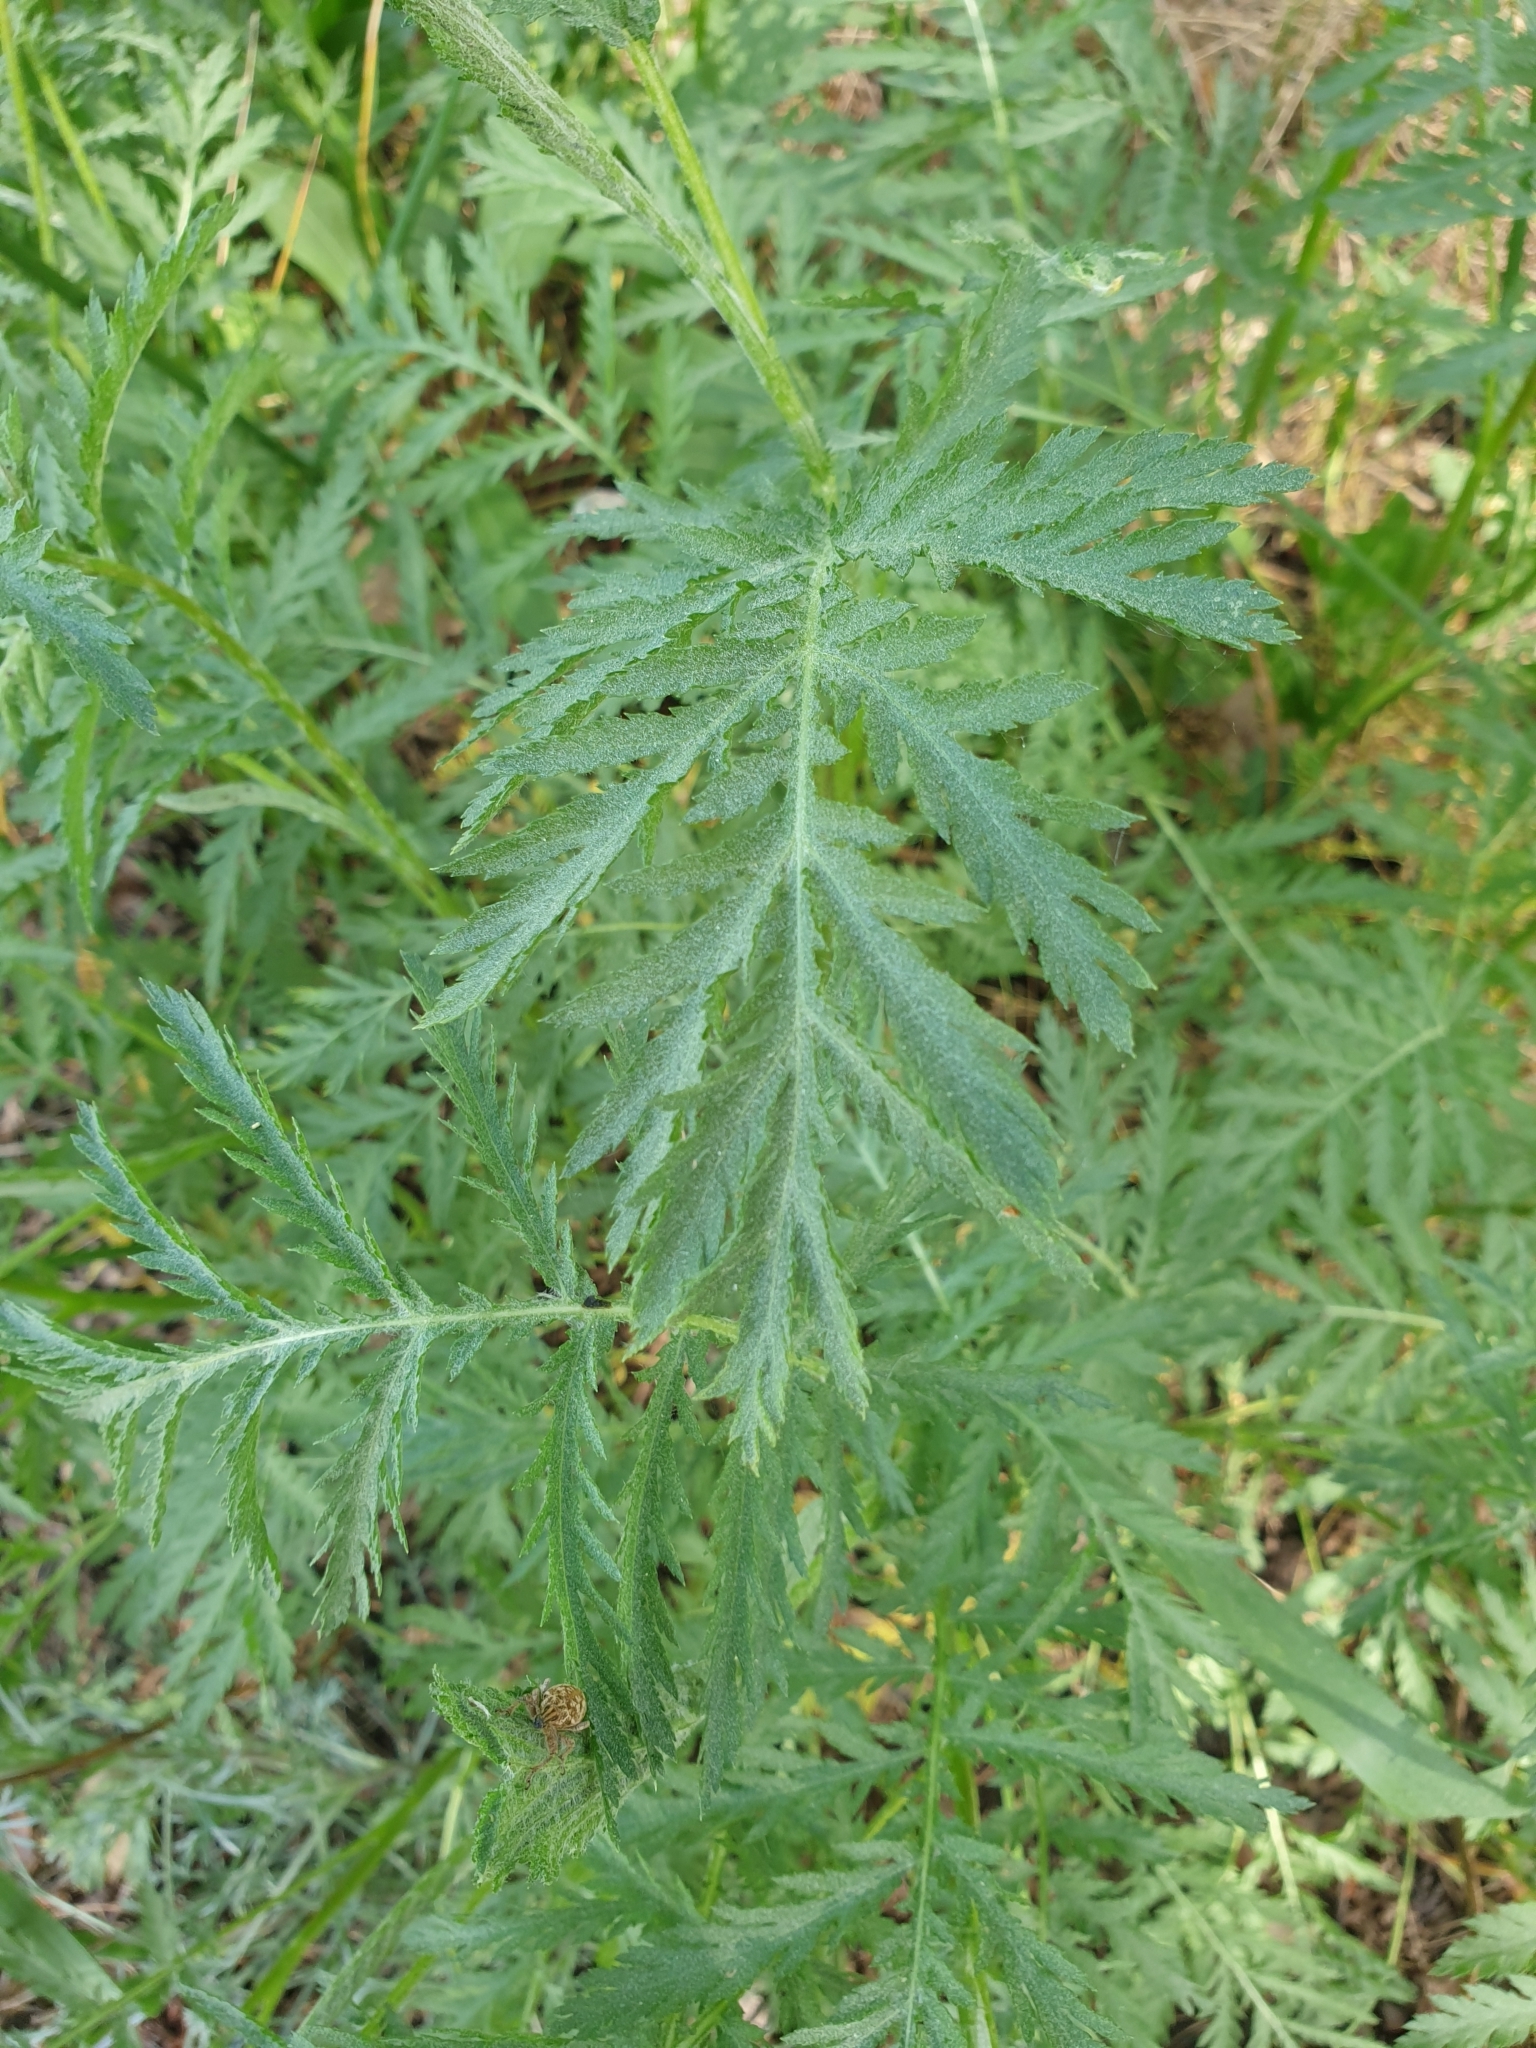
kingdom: Plantae
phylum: Tracheophyta
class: Magnoliopsida
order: Asterales
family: Asteraceae
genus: Tanacetum
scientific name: Tanacetum vulgare
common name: Common tansy
